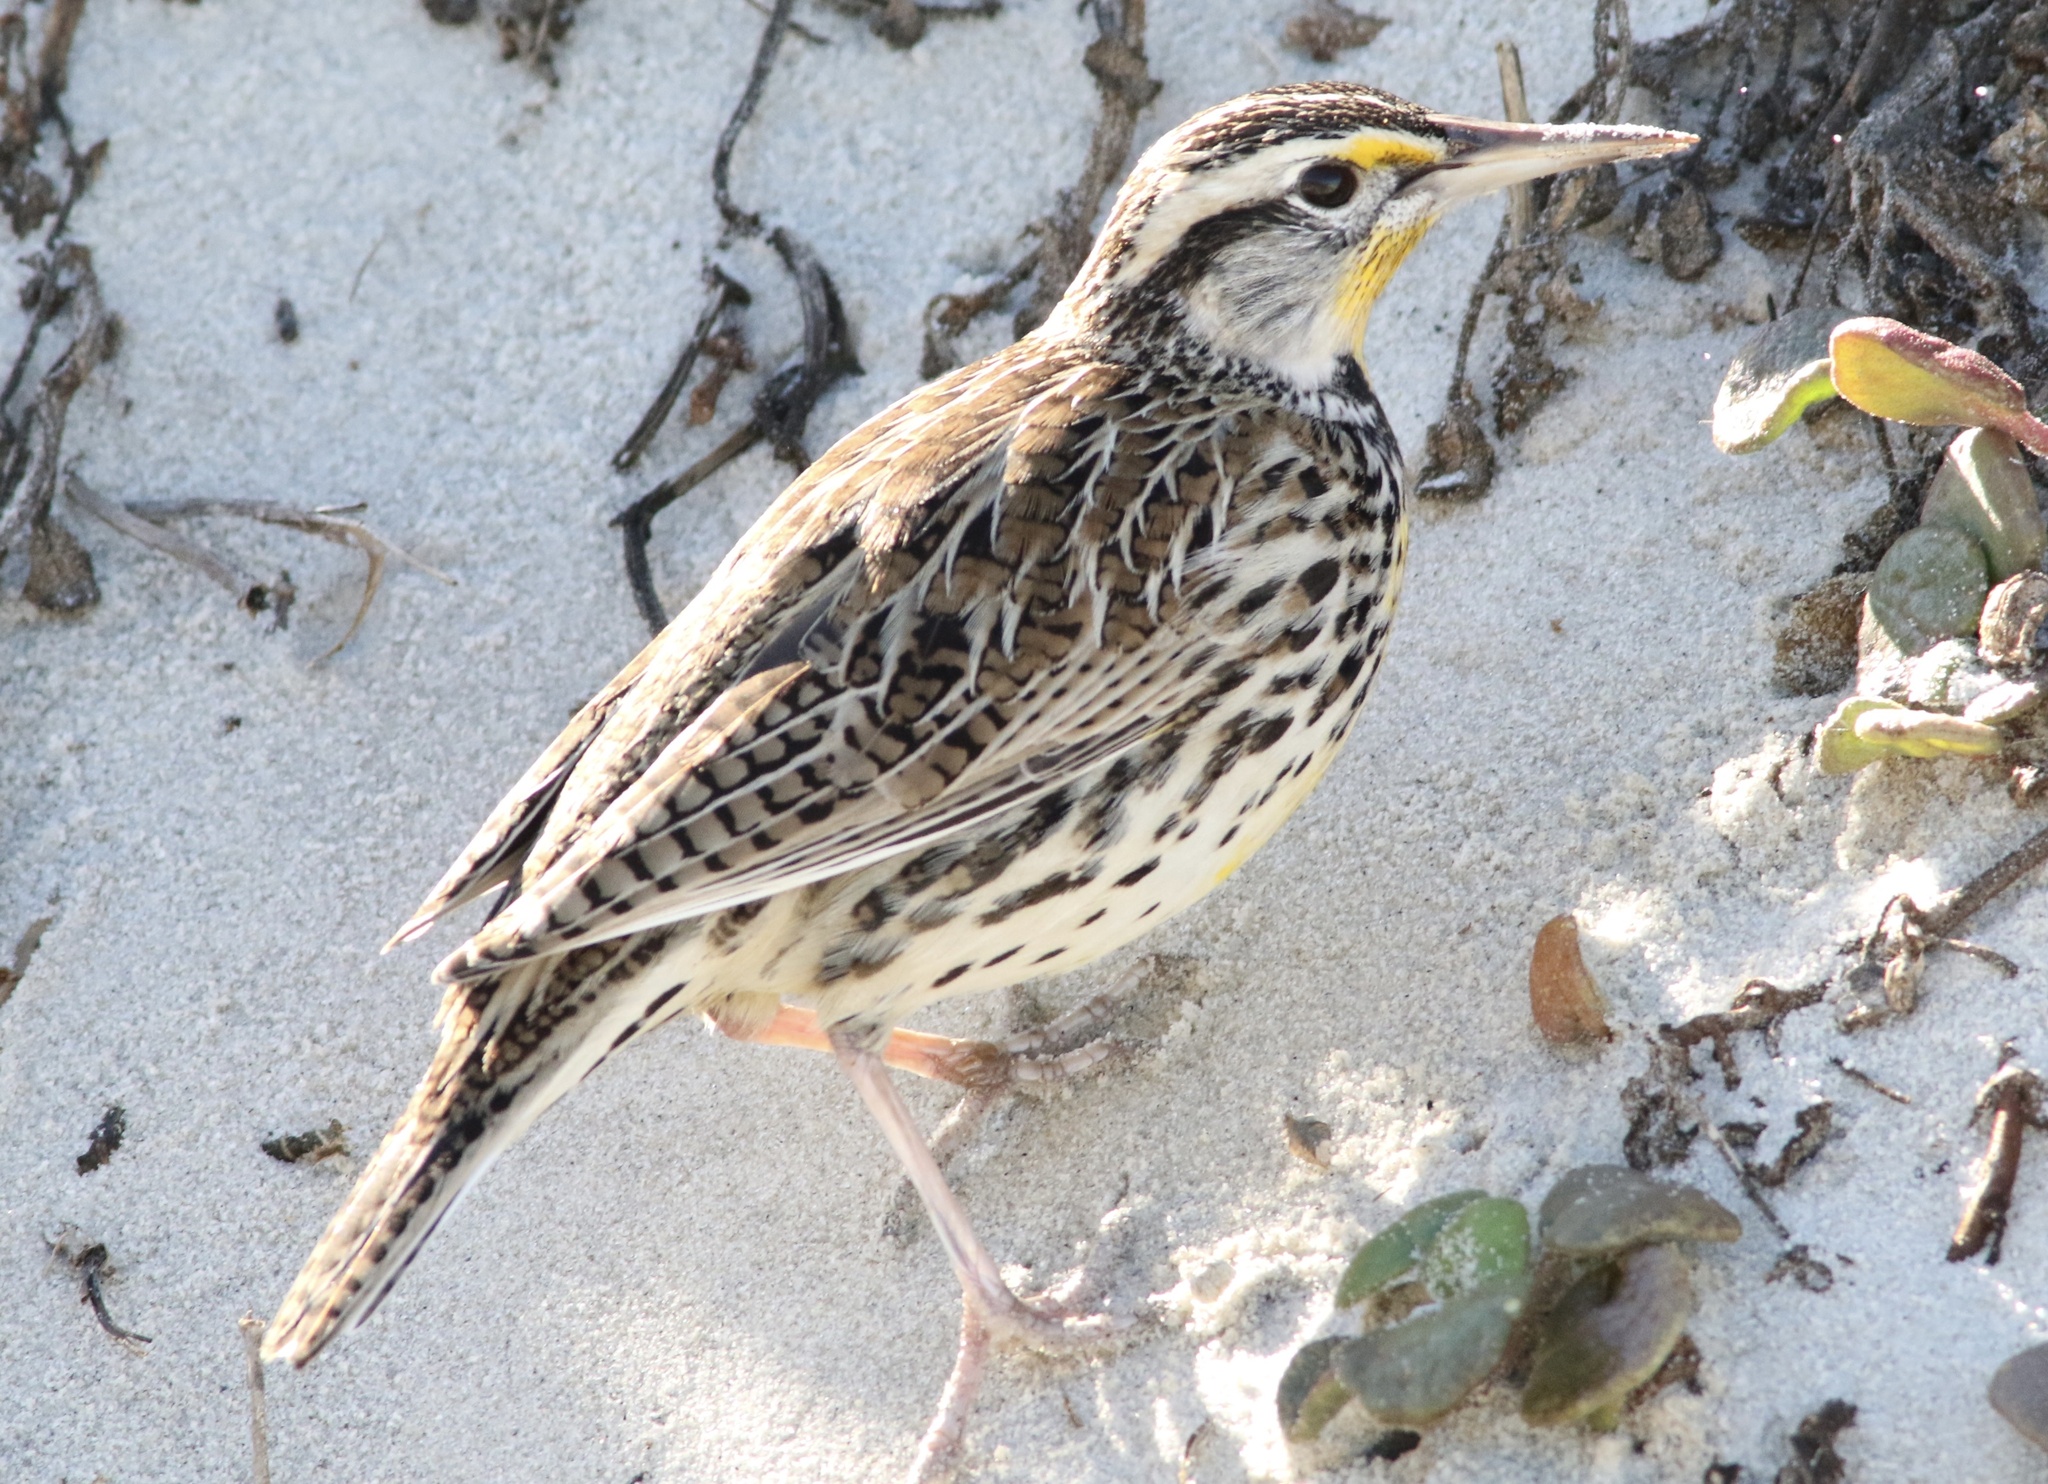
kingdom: Animalia
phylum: Chordata
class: Aves
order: Passeriformes
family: Icteridae
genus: Sturnella
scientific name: Sturnella neglecta
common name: Western meadowlark
